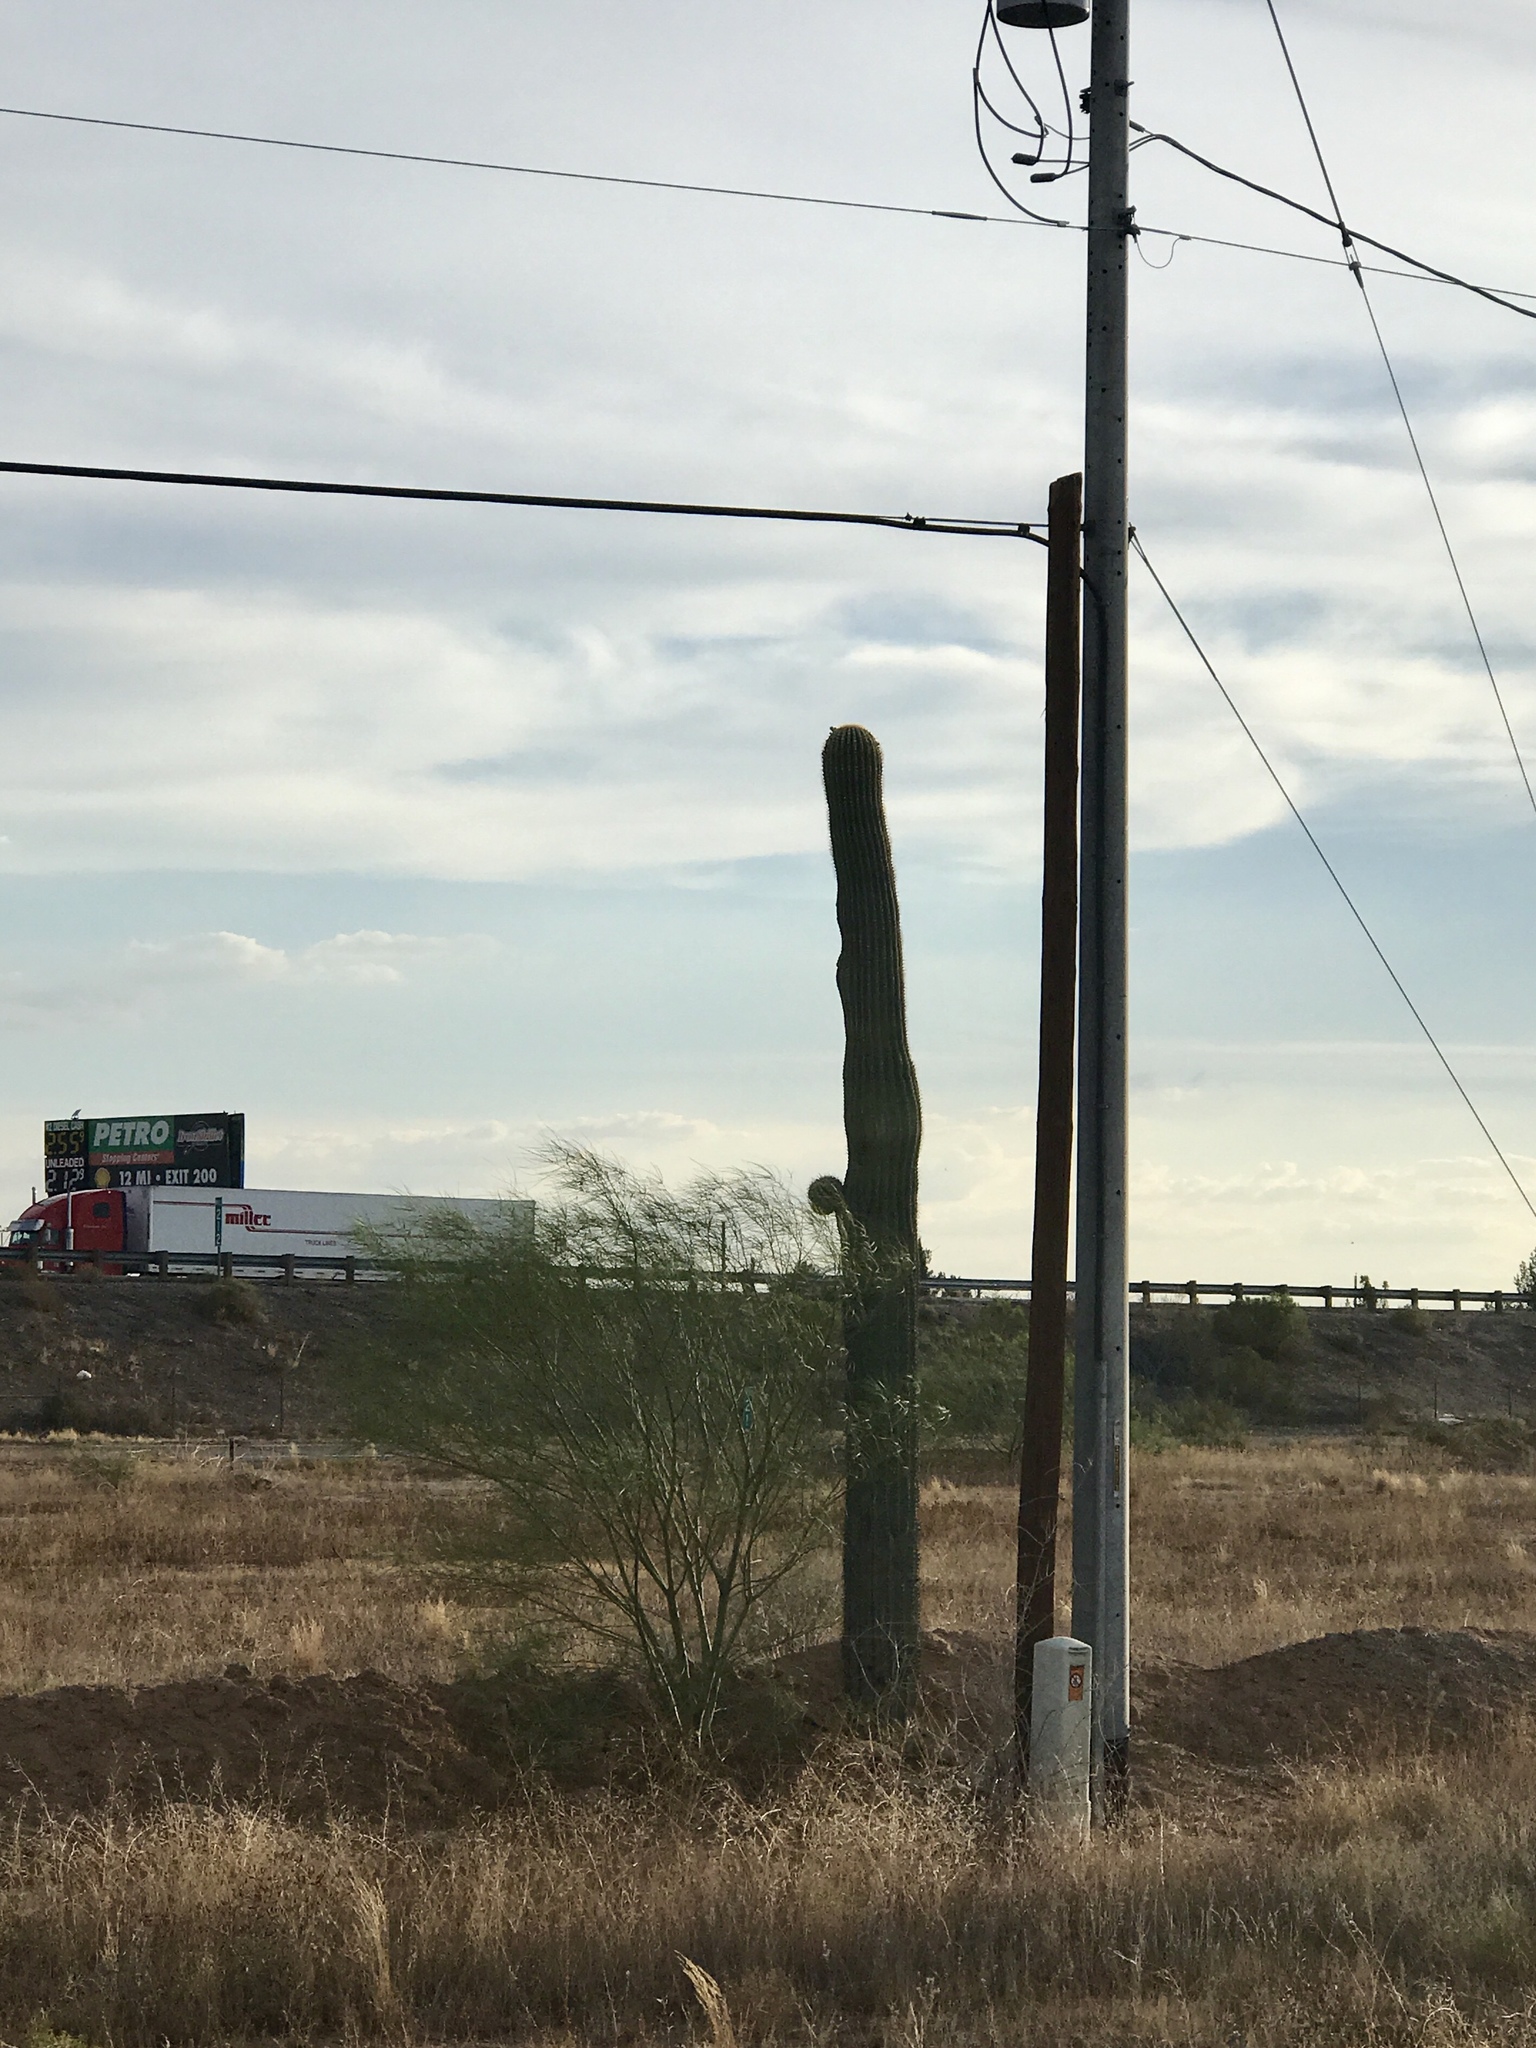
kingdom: Plantae
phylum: Tracheophyta
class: Magnoliopsida
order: Caryophyllales
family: Cactaceae
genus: Carnegiea
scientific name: Carnegiea gigantea
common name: Saguaro
